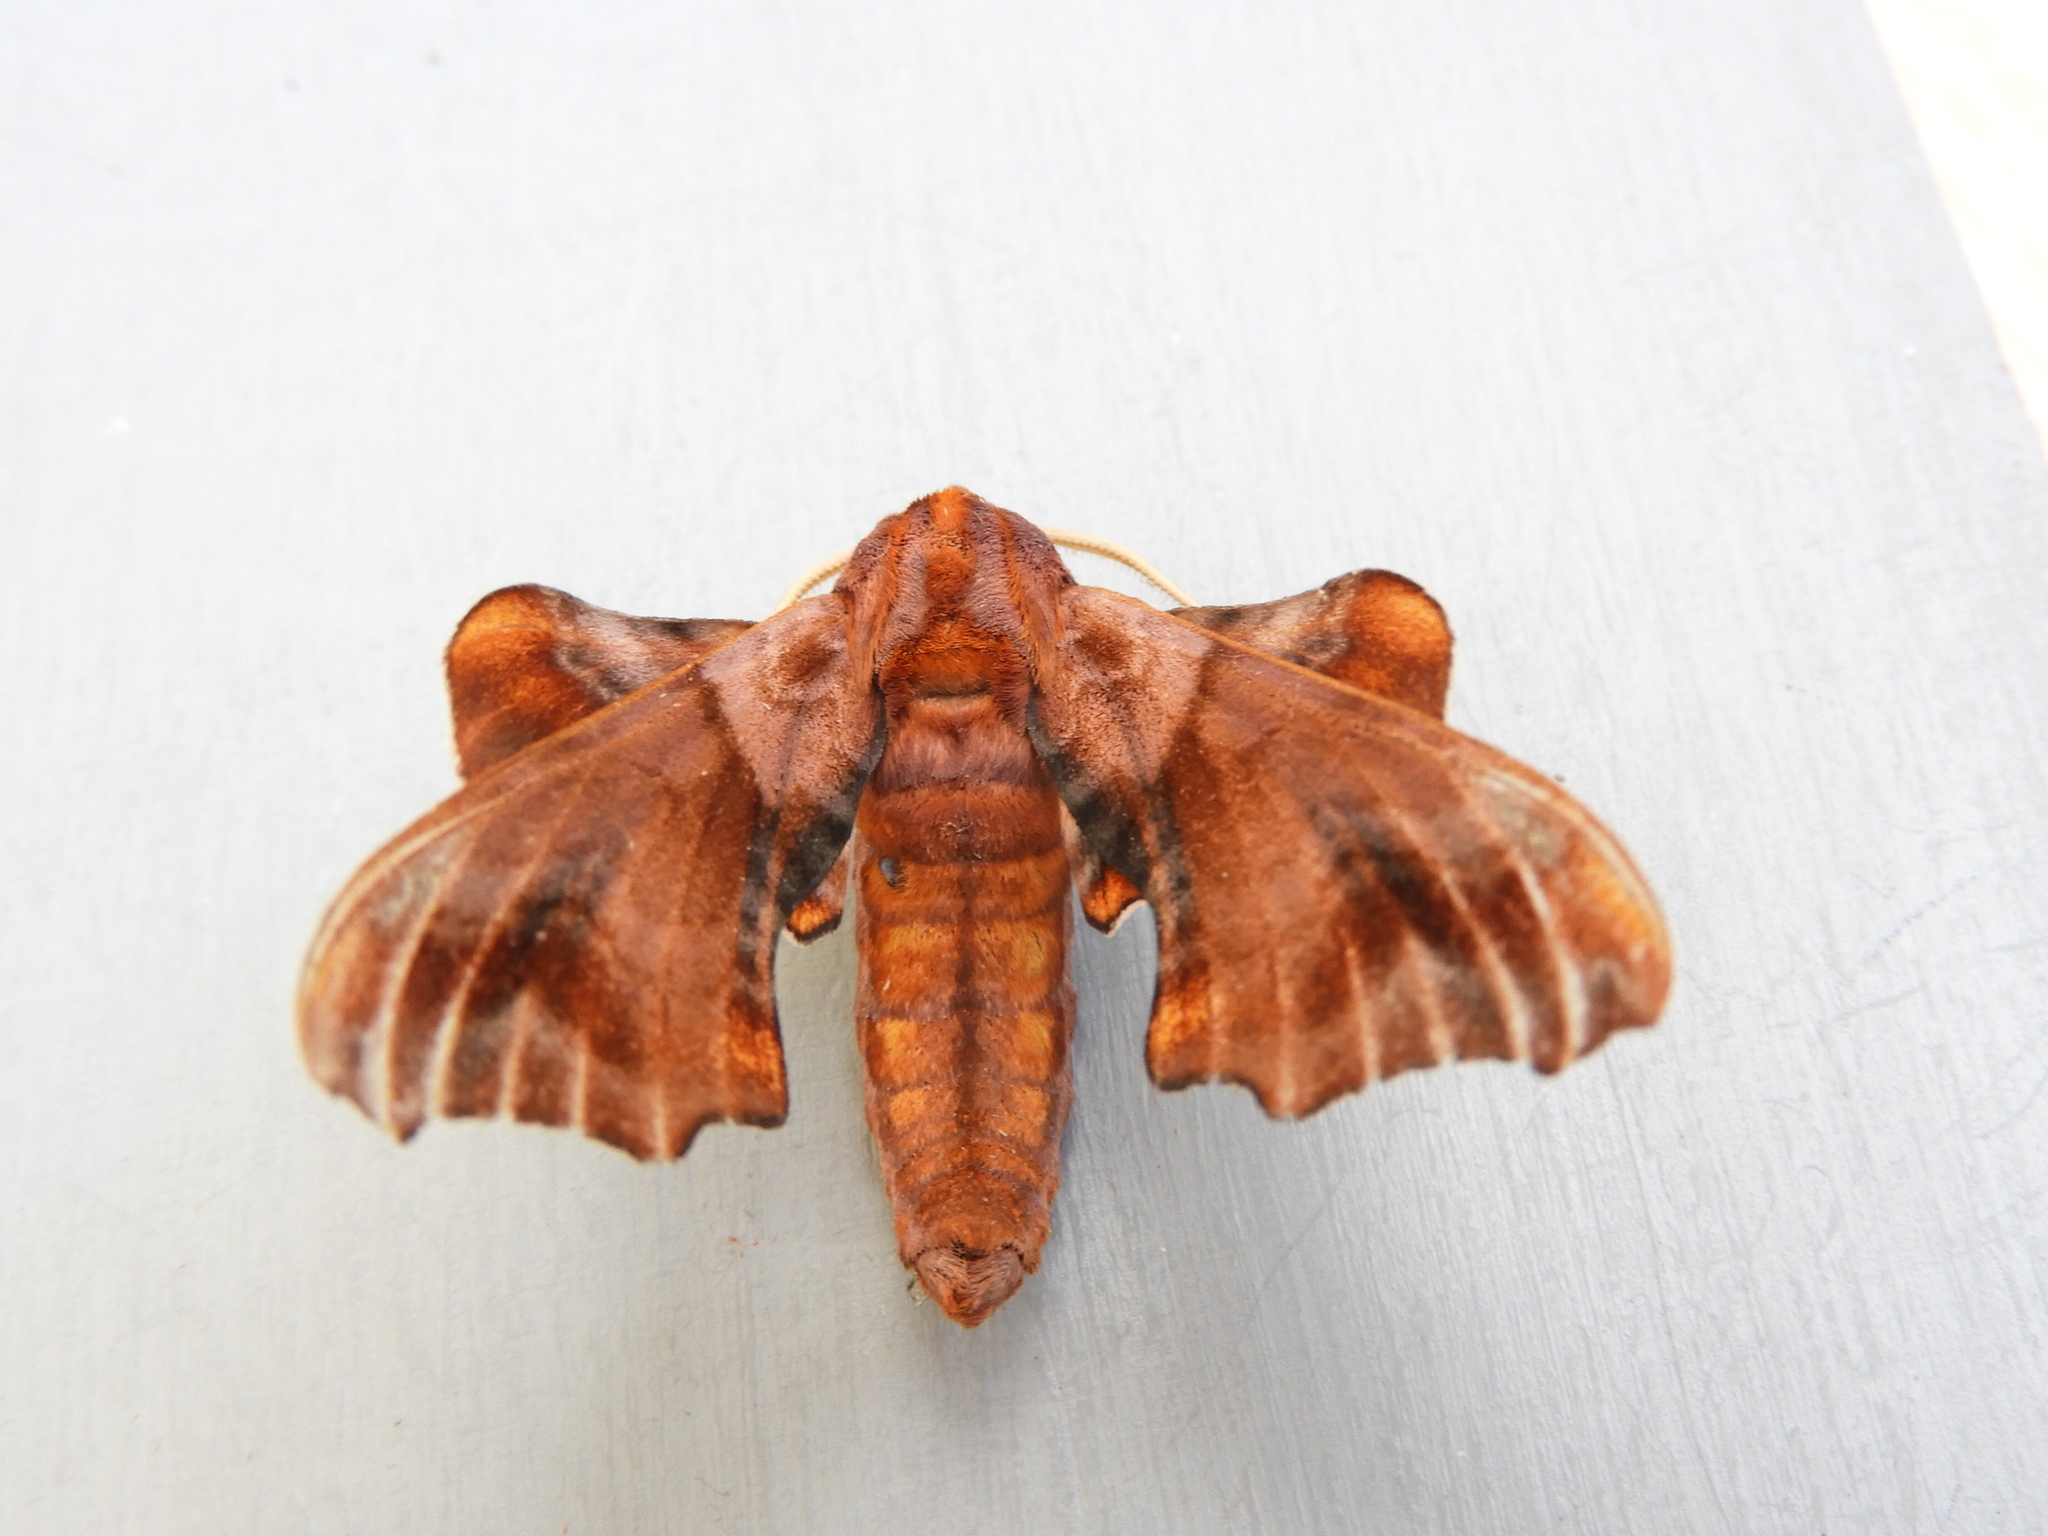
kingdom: Animalia
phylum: Arthropoda
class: Insecta
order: Lepidoptera
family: Sphingidae
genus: Paonias
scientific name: Paonias myops
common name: Small-eyed sphinx
